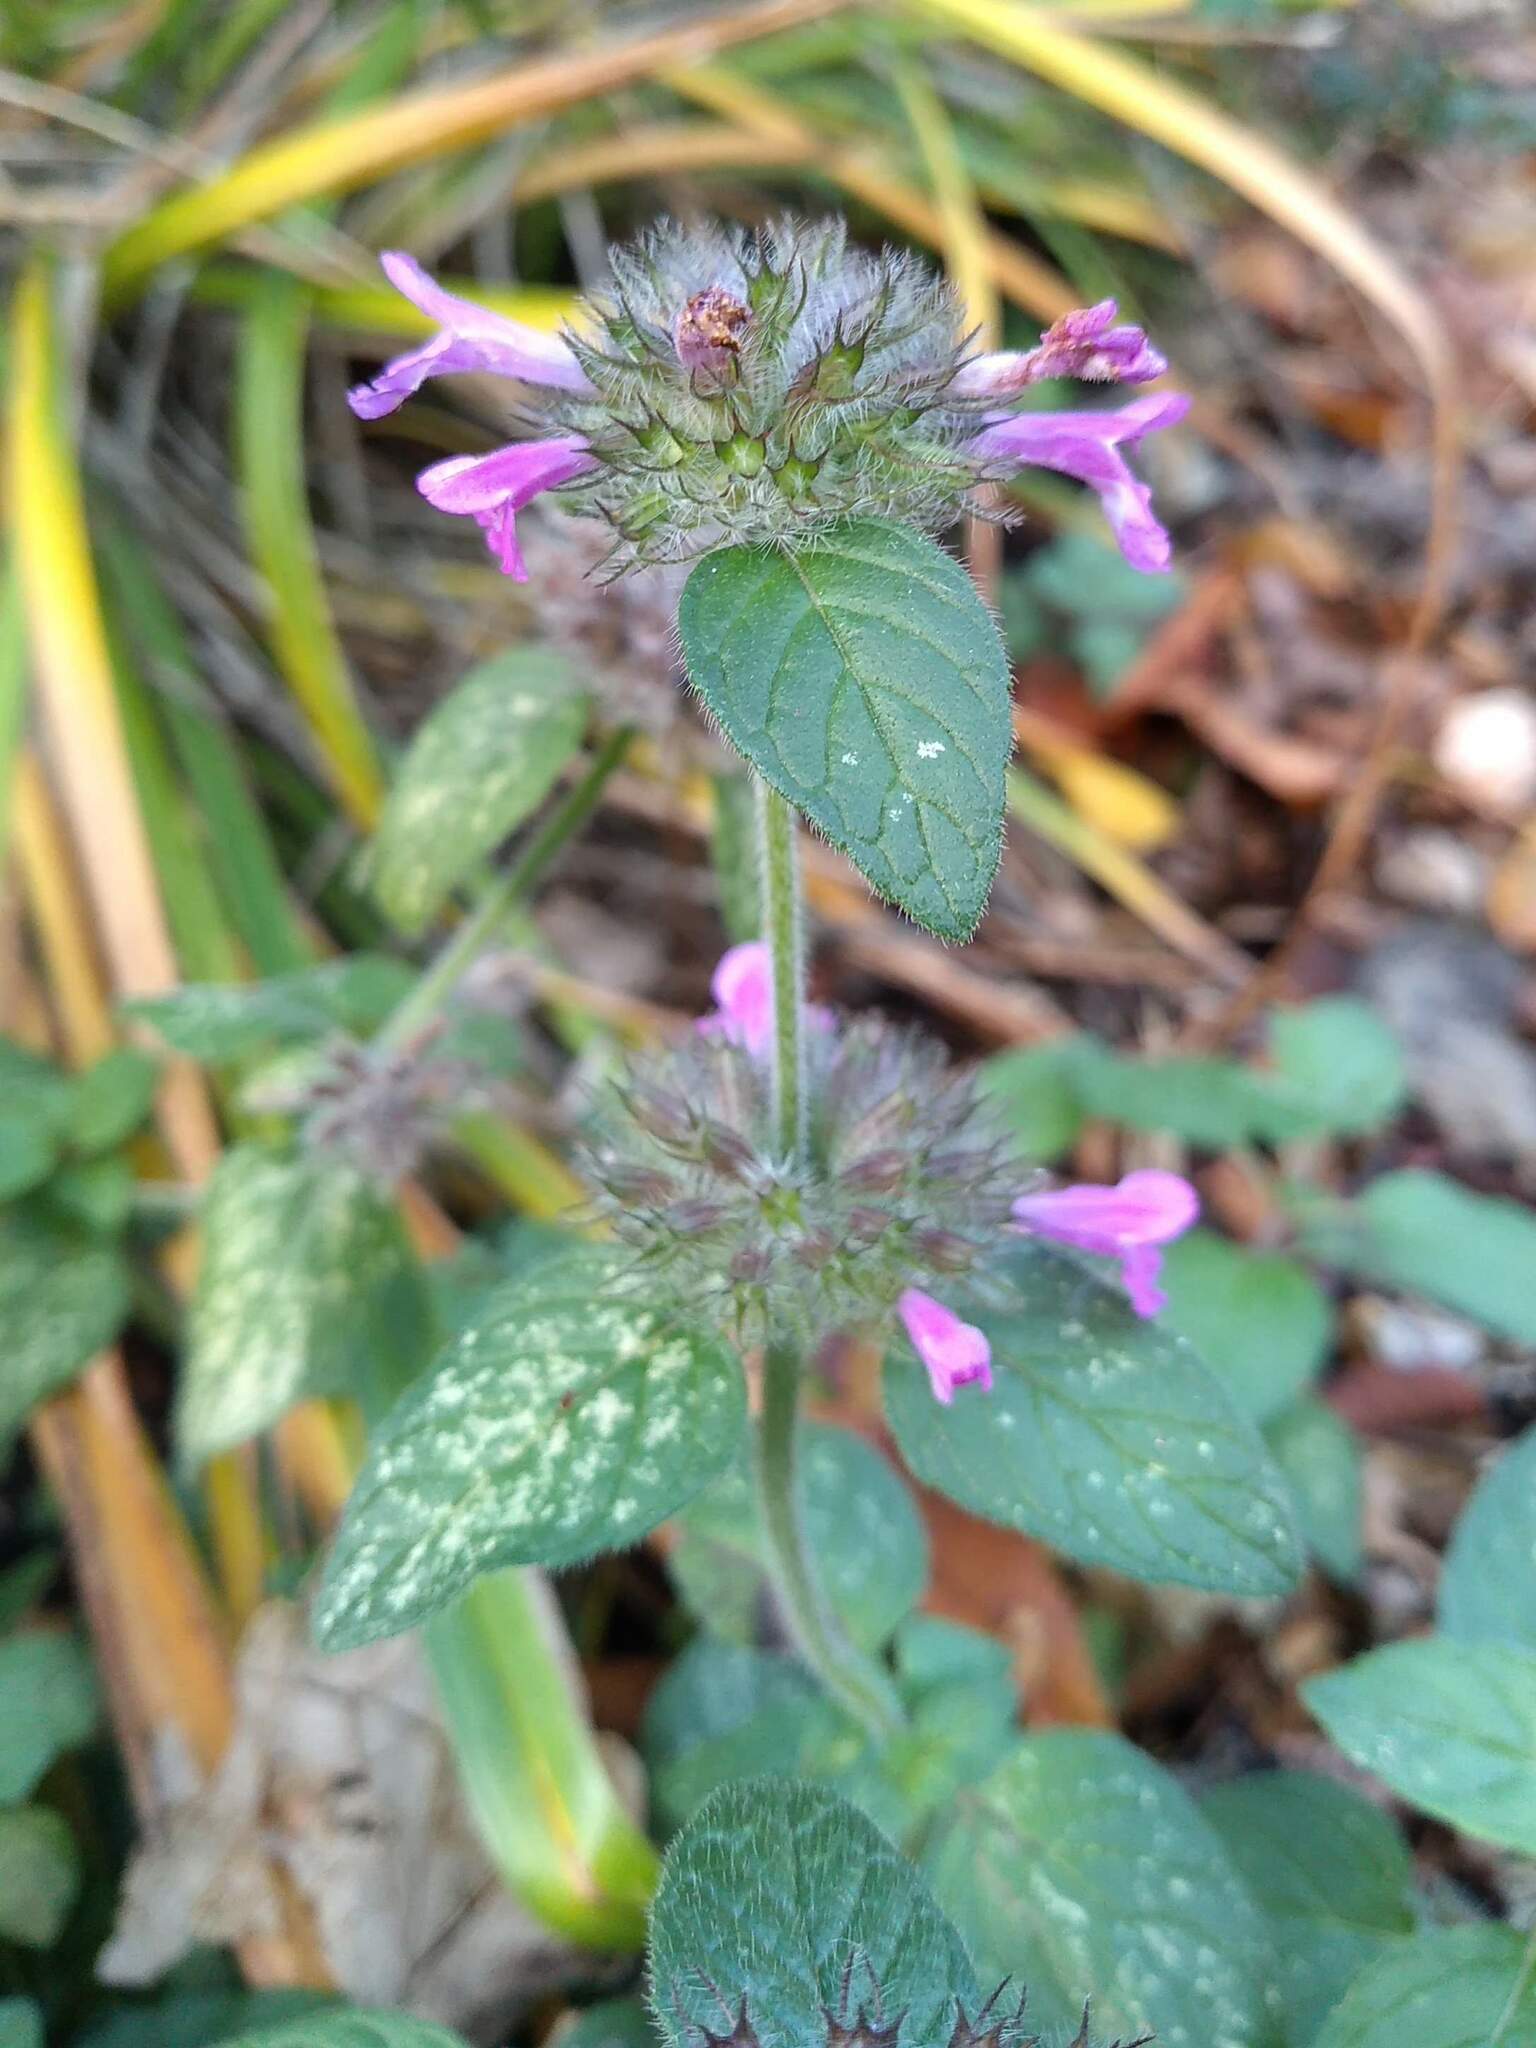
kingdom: Plantae
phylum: Tracheophyta
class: Magnoliopsida
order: Lamiales
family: Lamiaceae
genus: Clinopodium
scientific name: Clinopodium vulgare
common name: Wild basil
